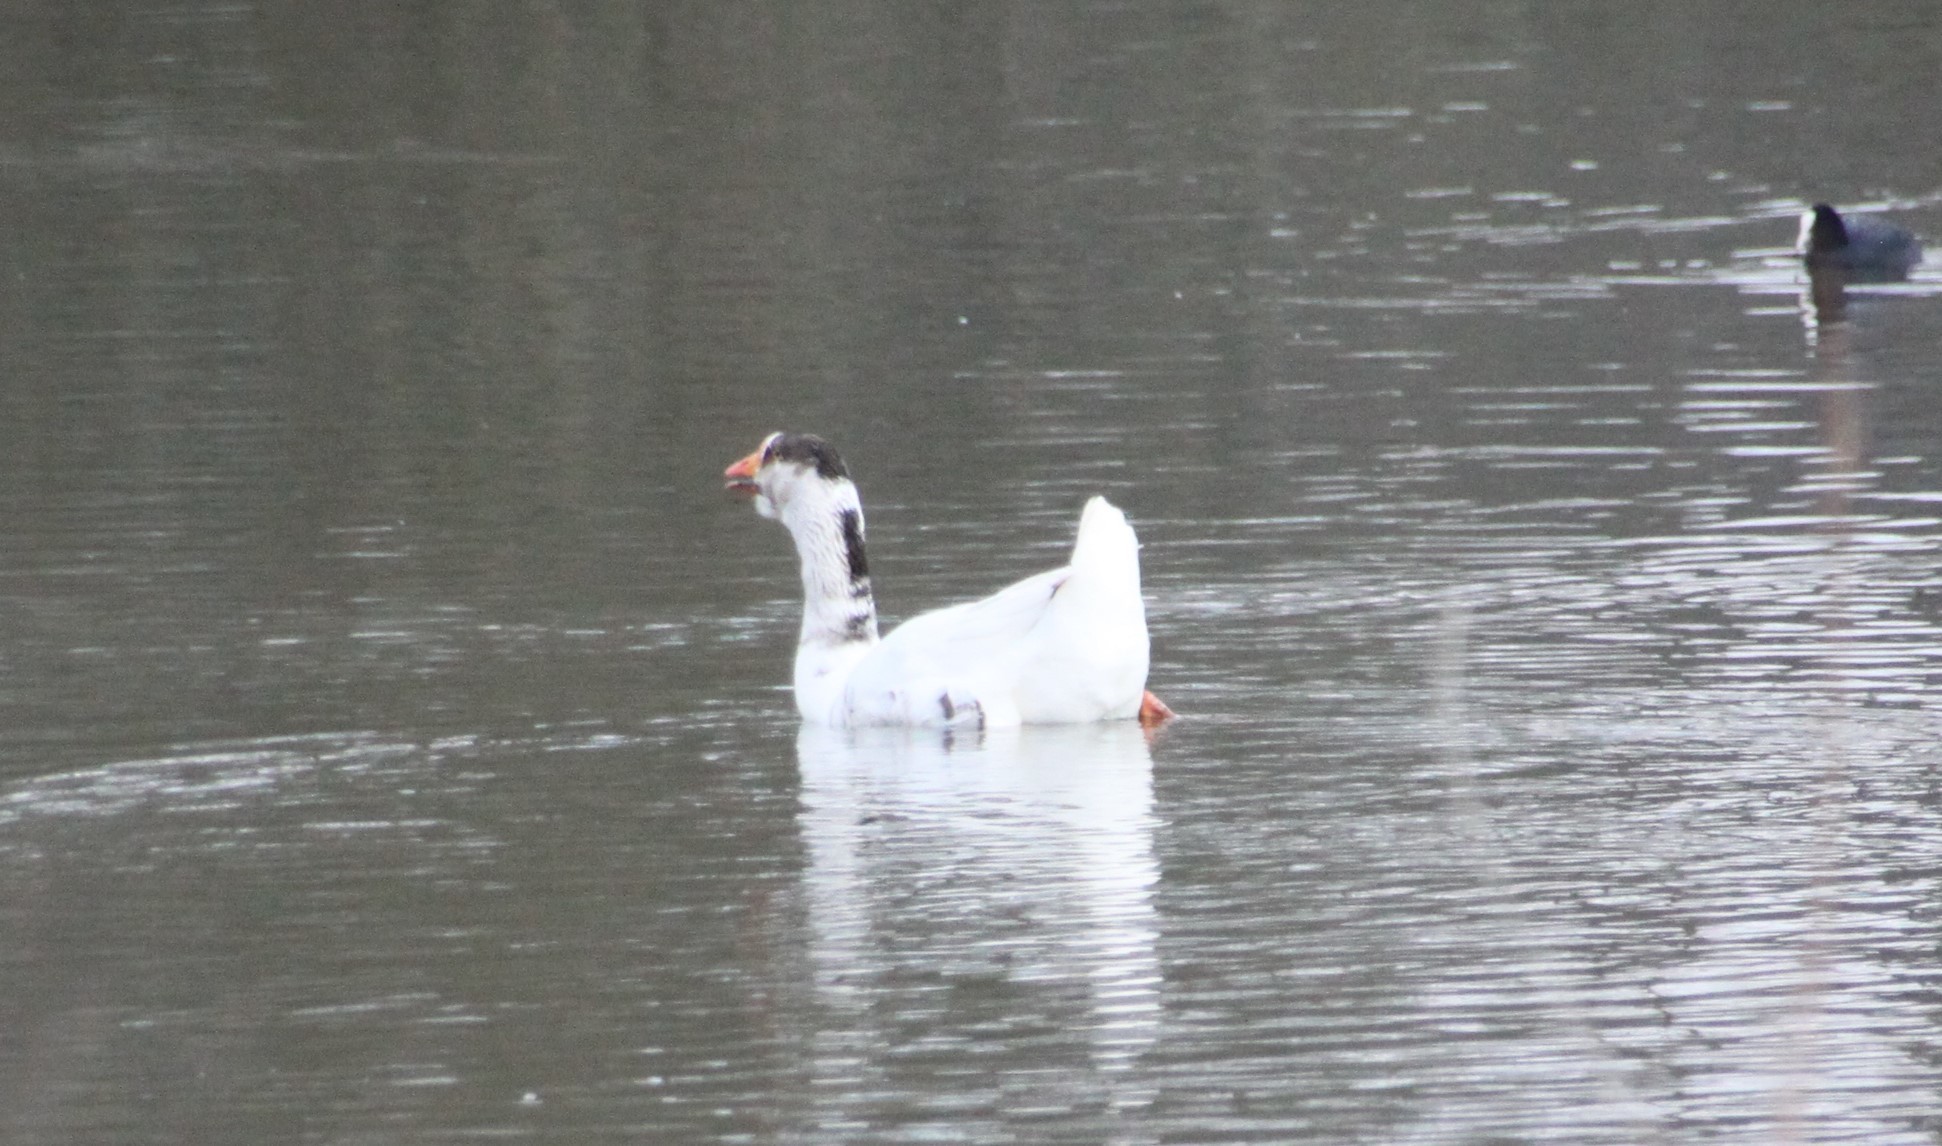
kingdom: Animalia
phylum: Chordata
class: Aves
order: Anseriformes
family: Anatidae
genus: Anser
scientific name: Anser
